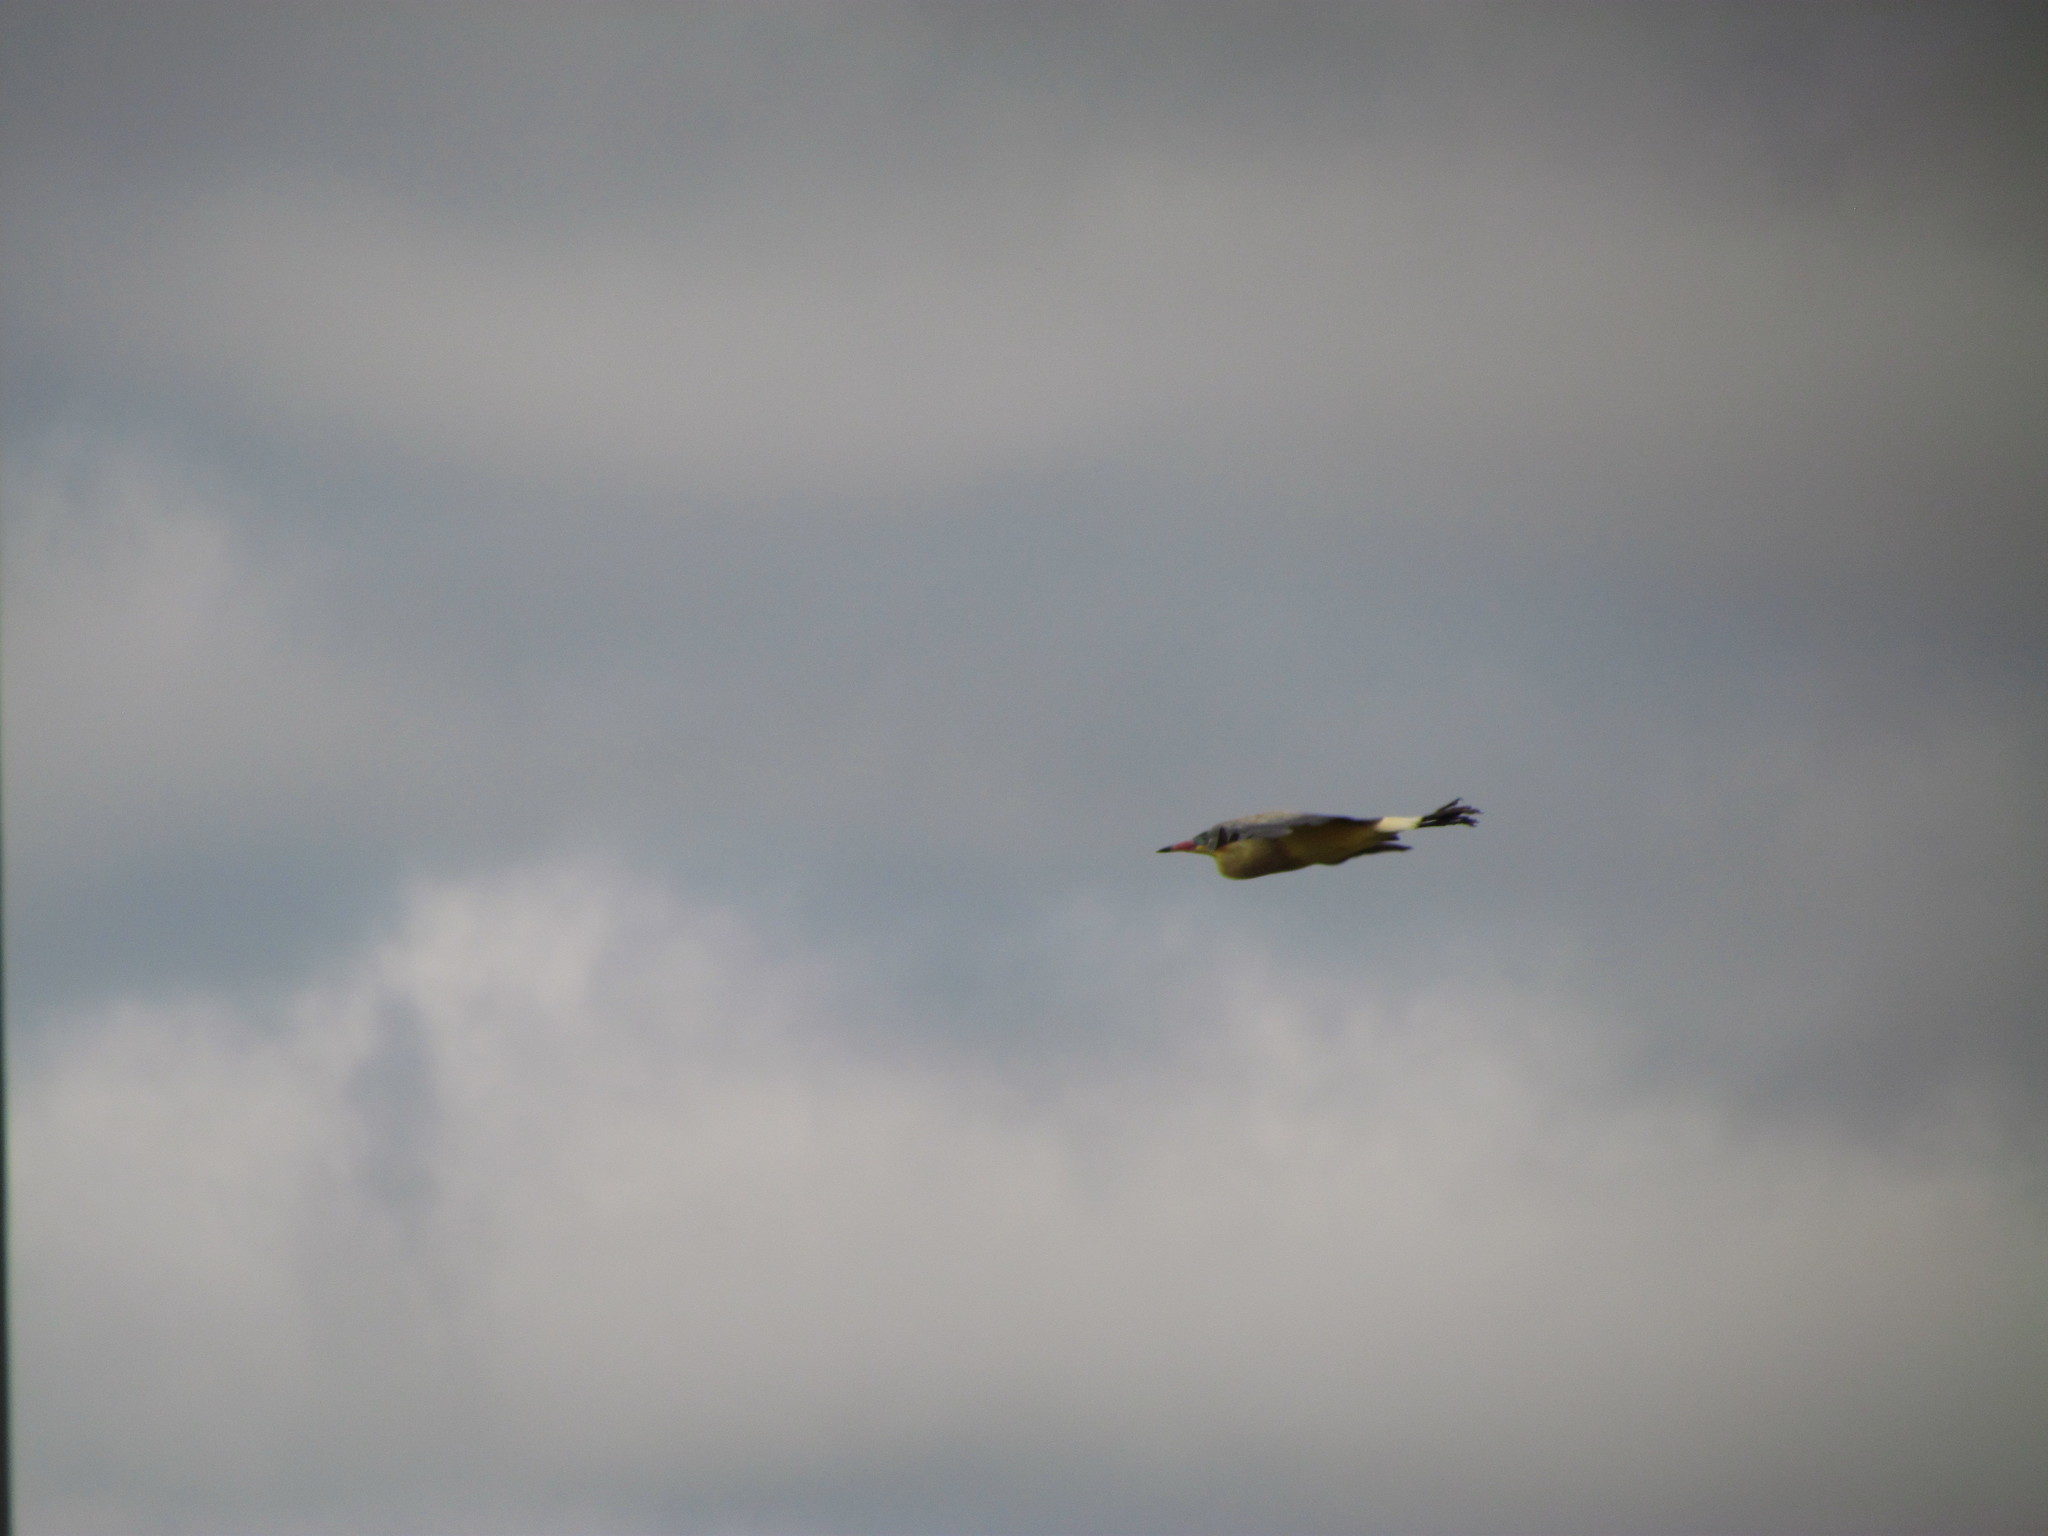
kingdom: Animalia
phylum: Chordata
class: Aves
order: Pelecaniformes
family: Ardeidae
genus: Syrigma
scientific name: Syrigma sibilatrix
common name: Whistling heron
